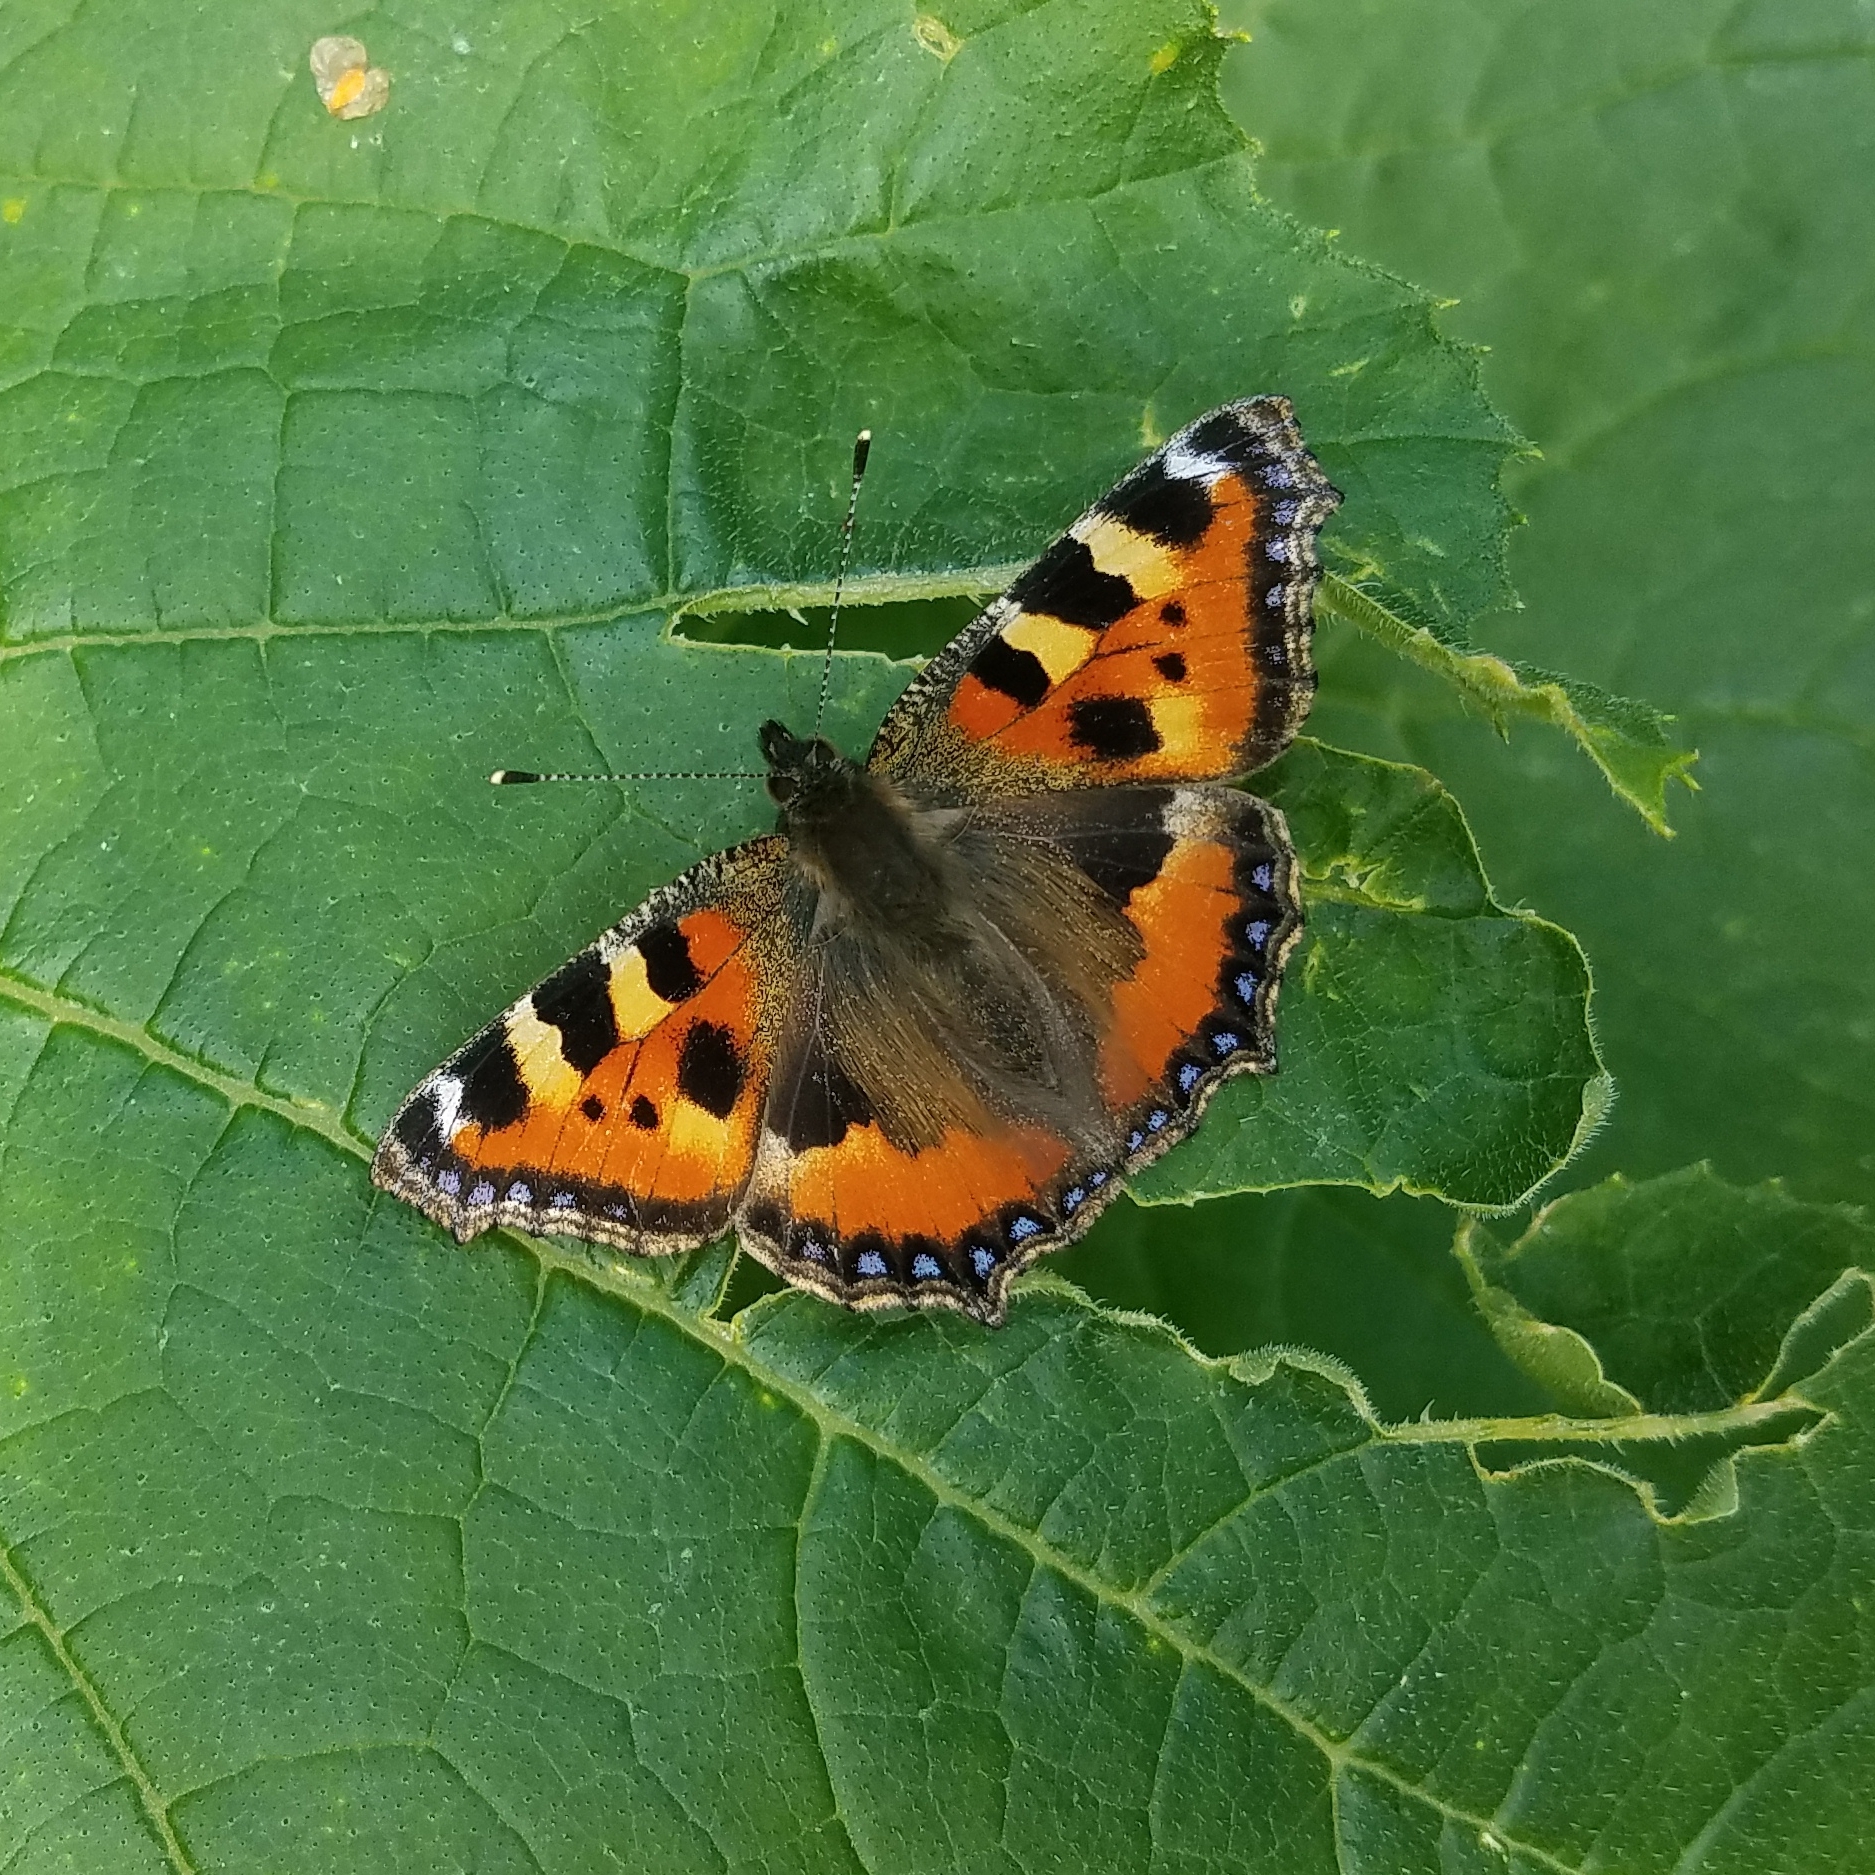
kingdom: Animalia
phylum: Arthropoda
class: Insecta
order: Lepidoptera
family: Nymphalidae
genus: Aglais
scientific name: Aglais urticae
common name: Small tortoiseshell
